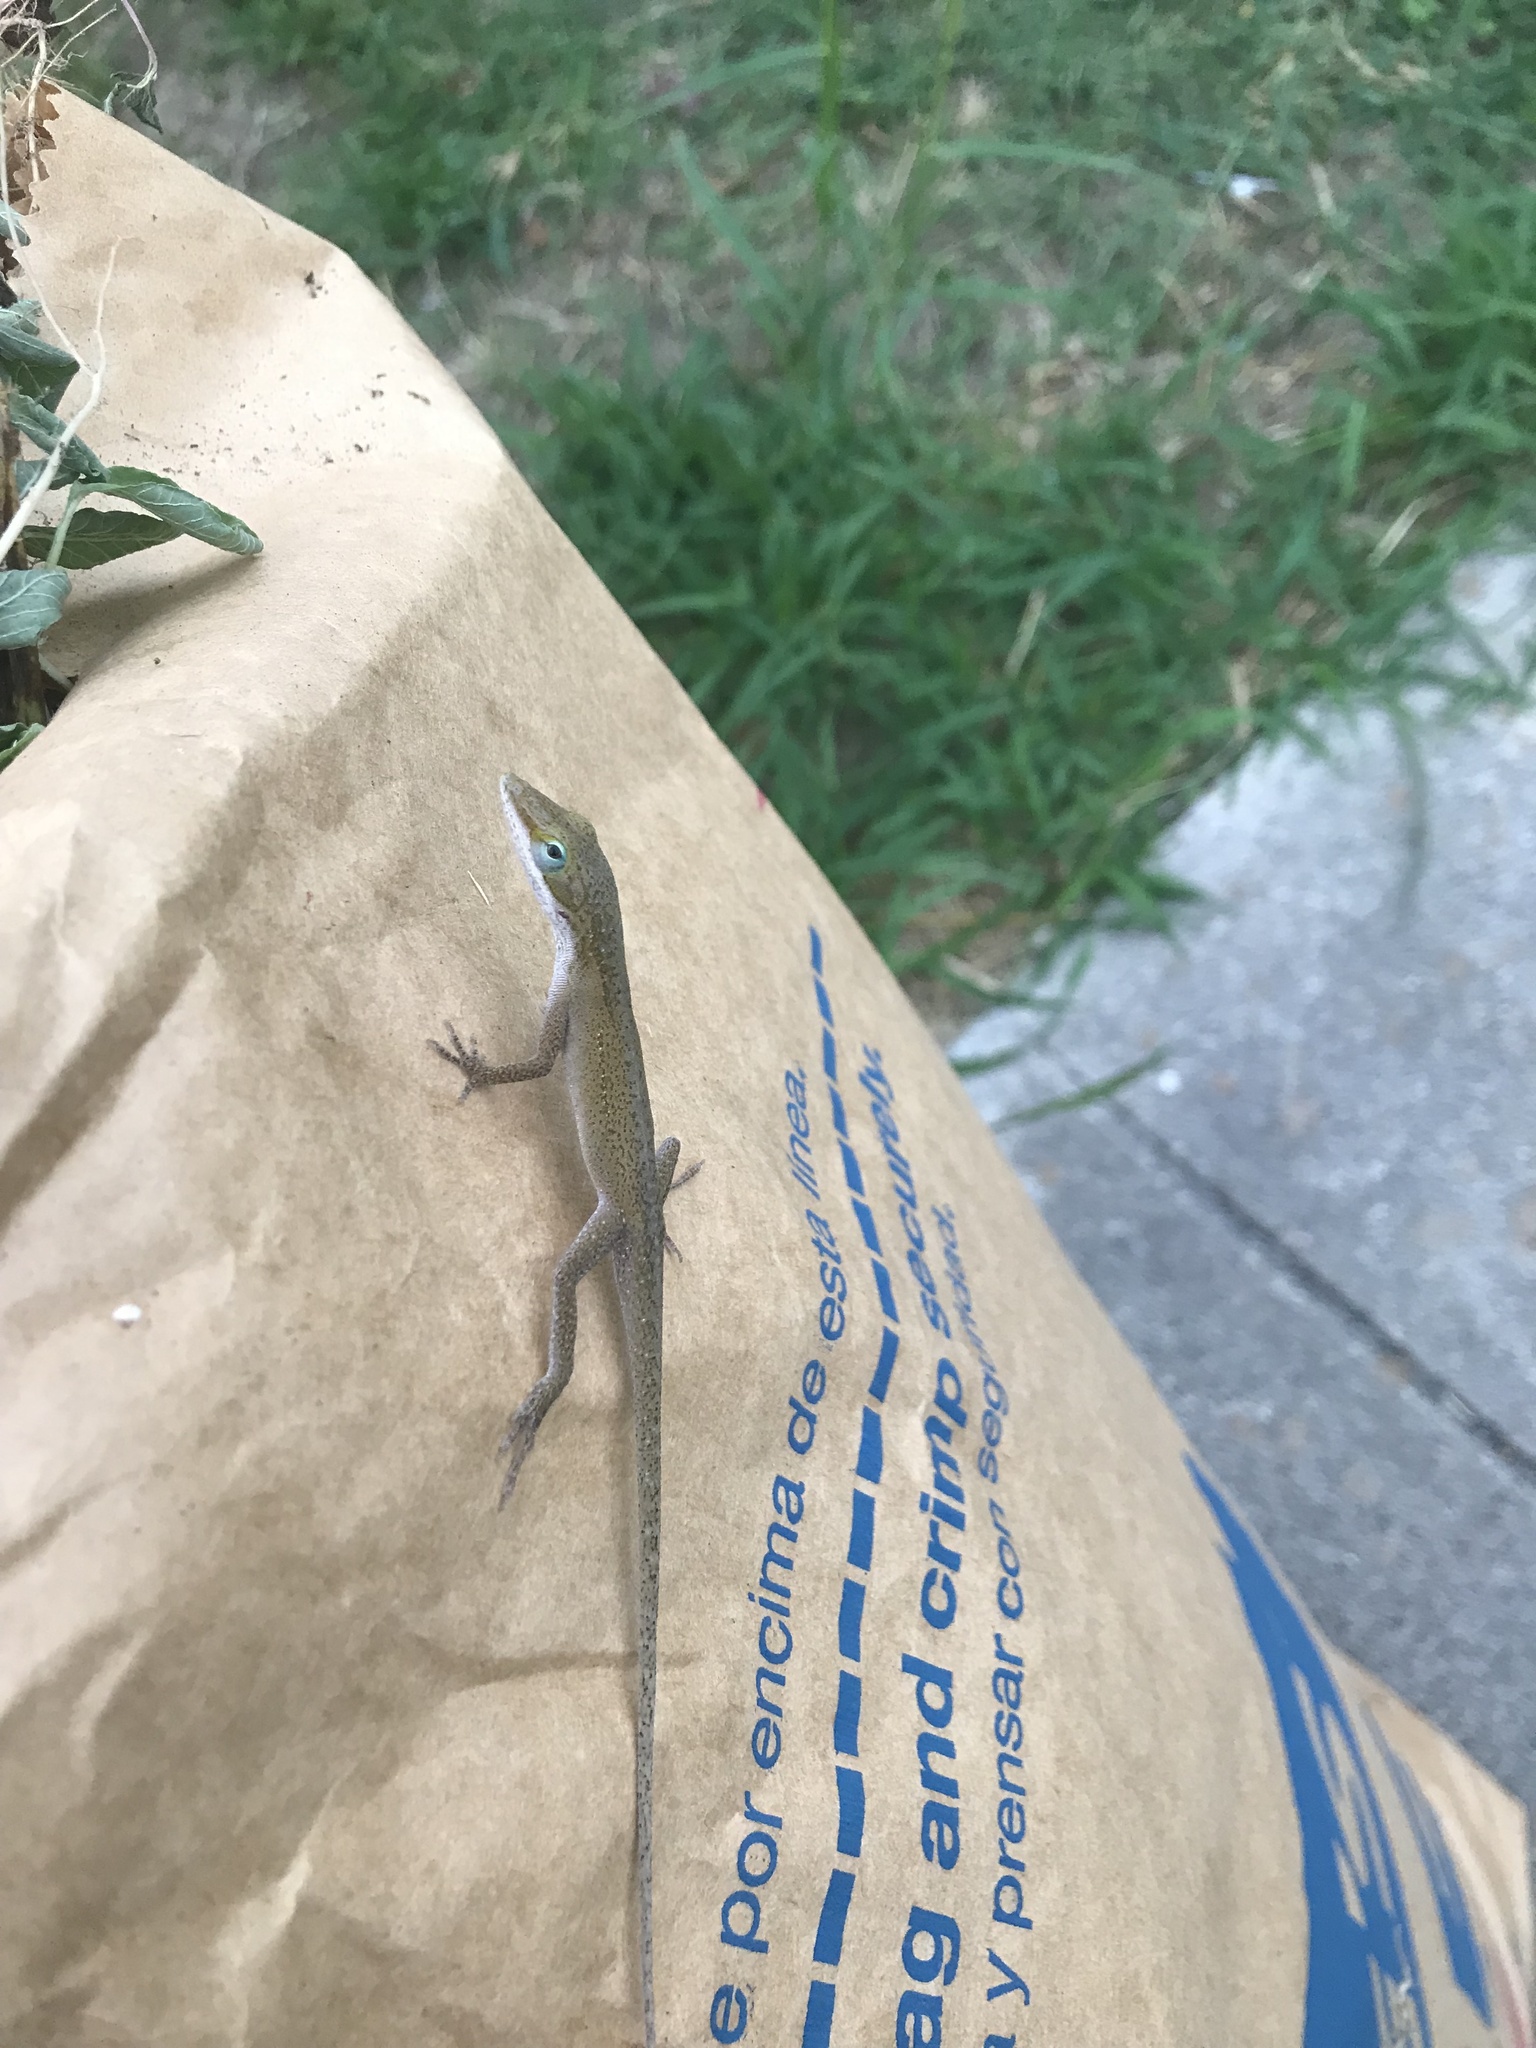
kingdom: Animalia
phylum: Chordata
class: Squamata
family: Dactyloidae
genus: Anolis
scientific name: Anolis carolinensis
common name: Green anole
